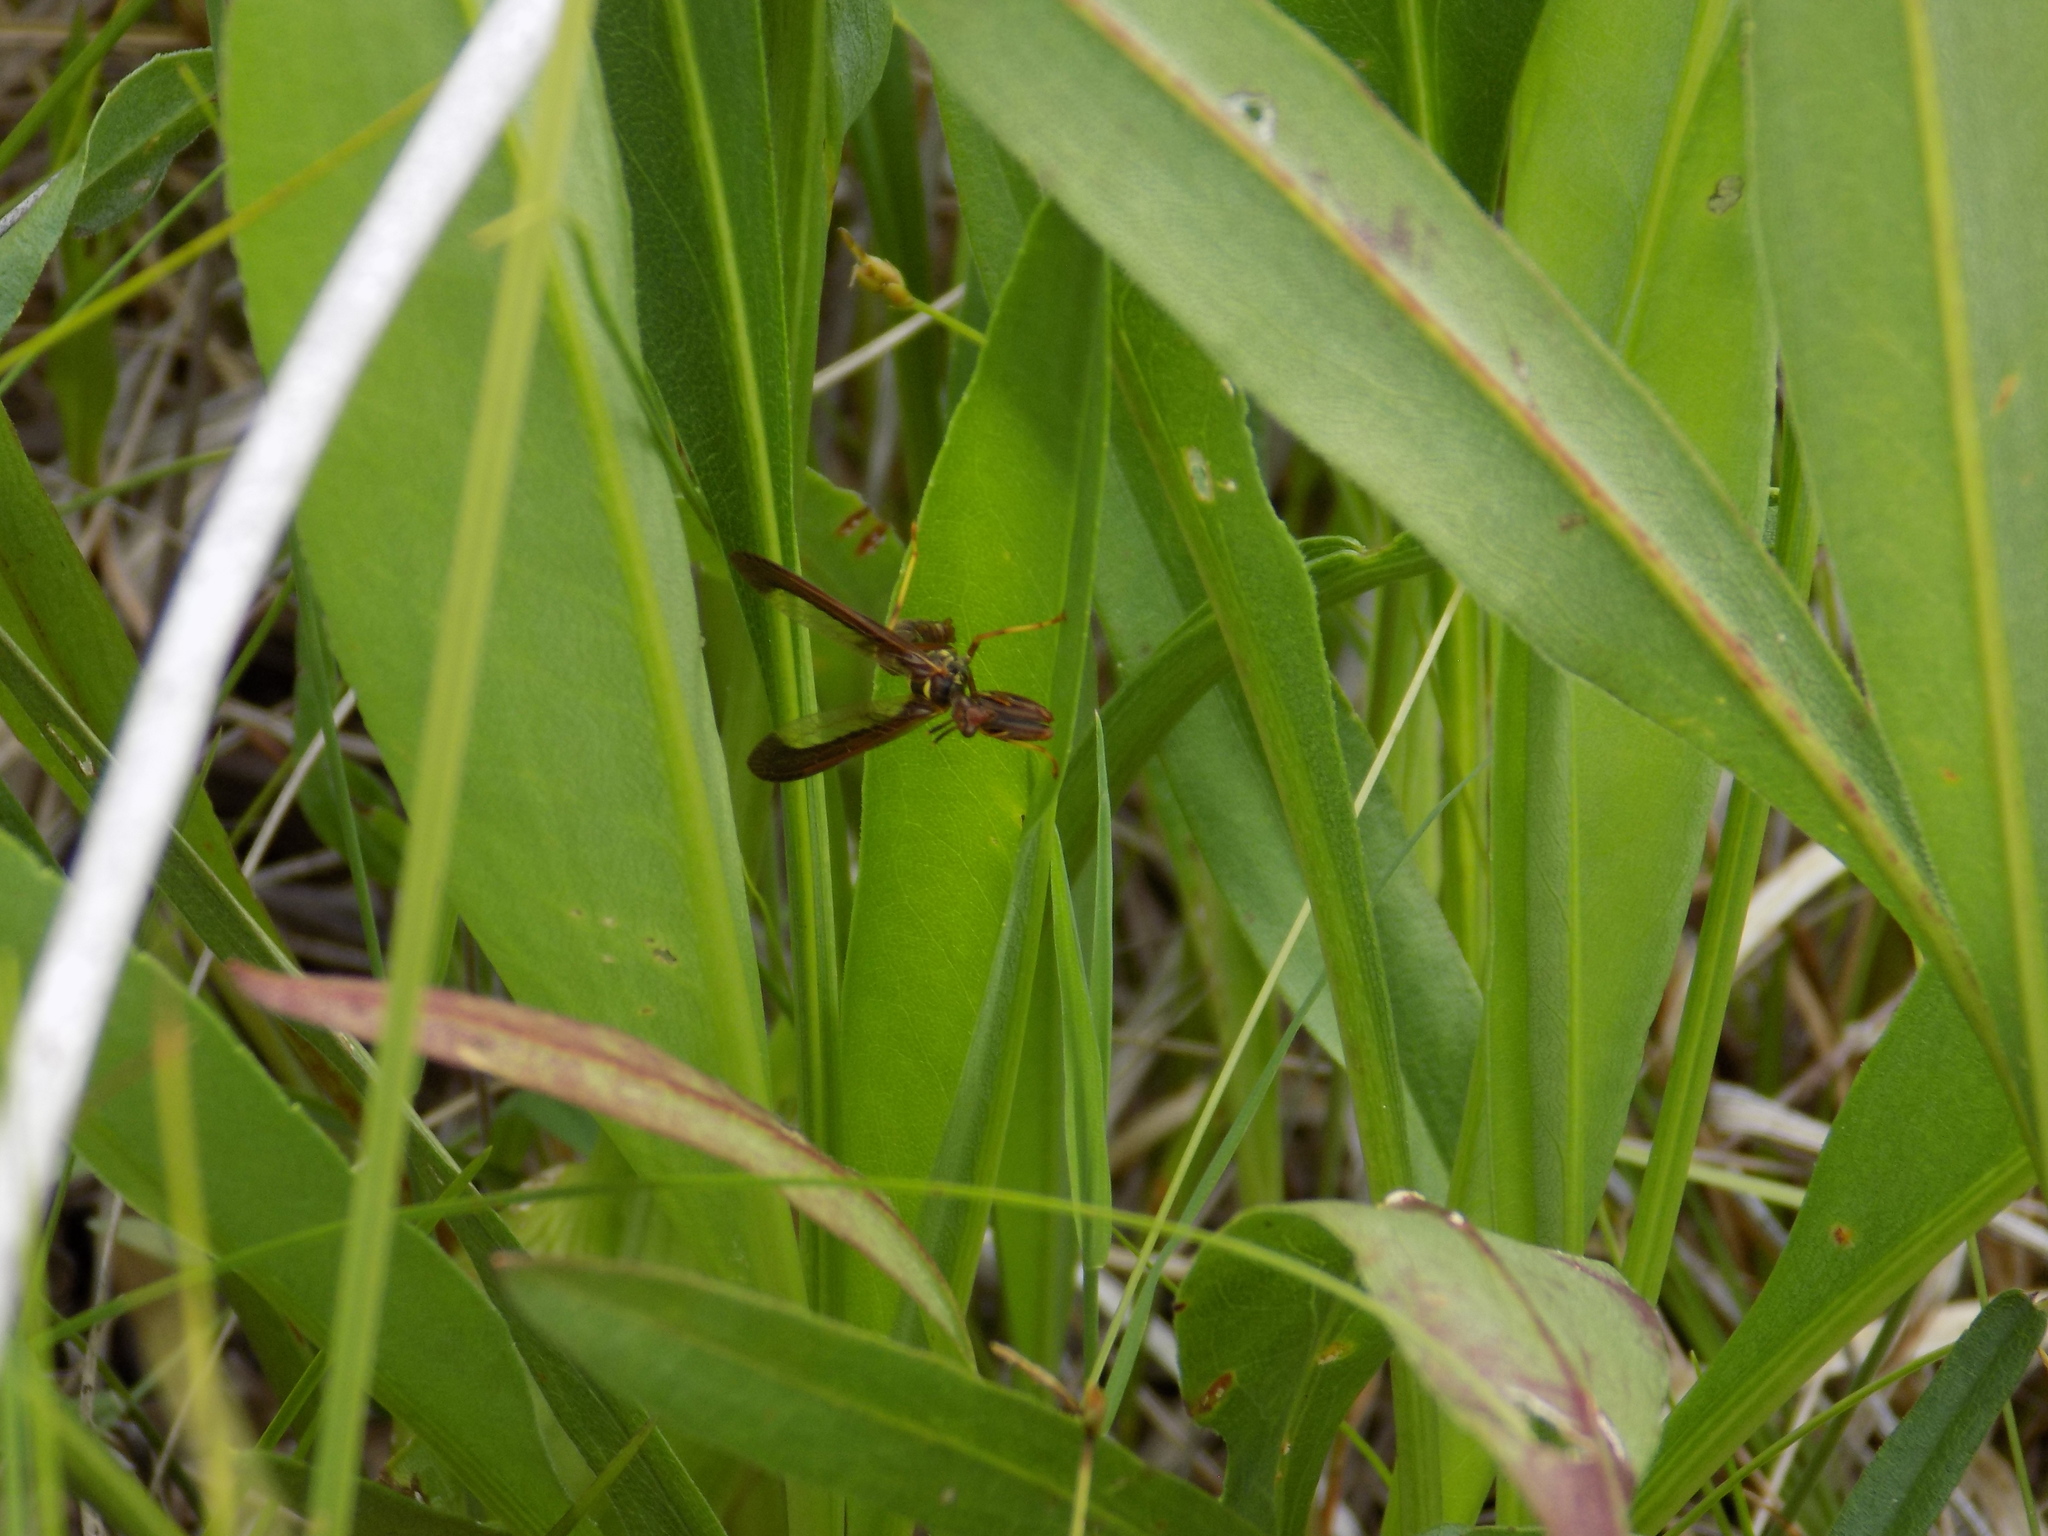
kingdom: Animalia
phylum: Arthropoda
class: Insecta
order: Neuroptera
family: Mantispidae
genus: Climaciella
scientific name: Climaciella brunnea
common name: Brown wasp mantidfly
